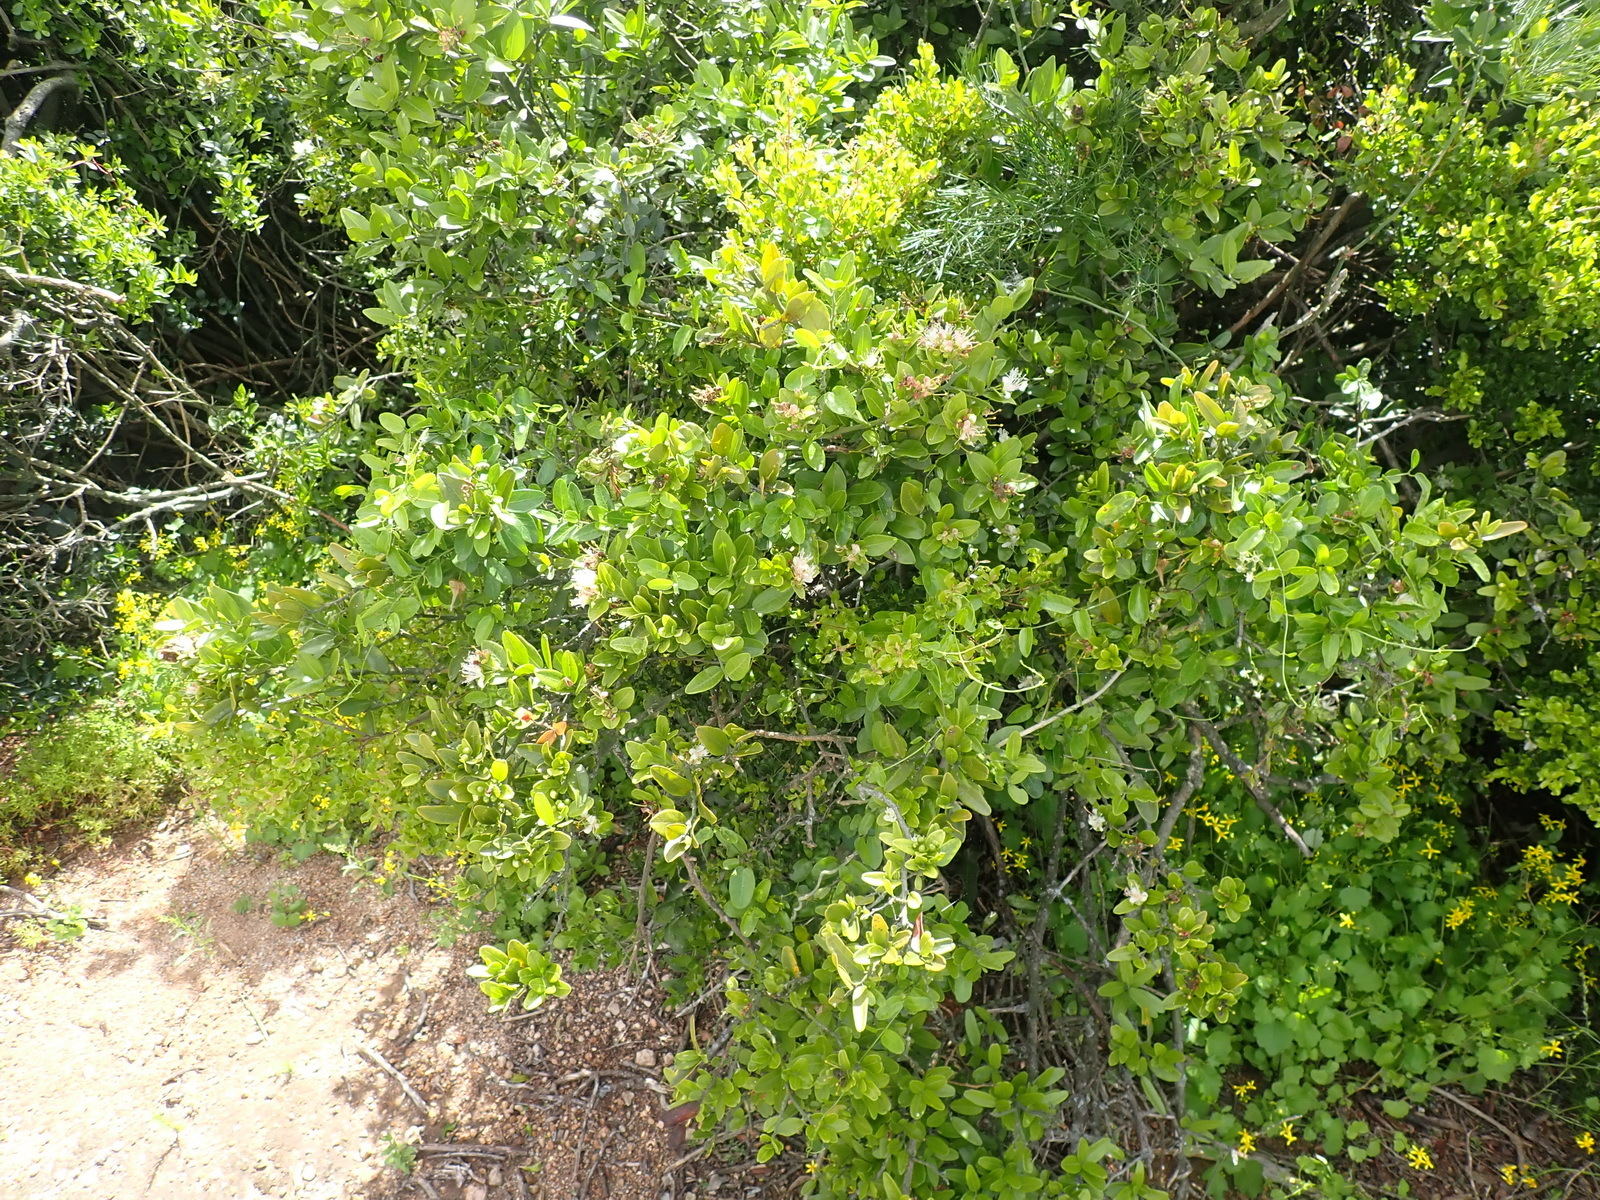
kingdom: Plantae
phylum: Tracheophyta
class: Magnoliopsida
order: Brassicales
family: Capparaceae
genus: Capparis
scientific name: Capparis sepiaria
